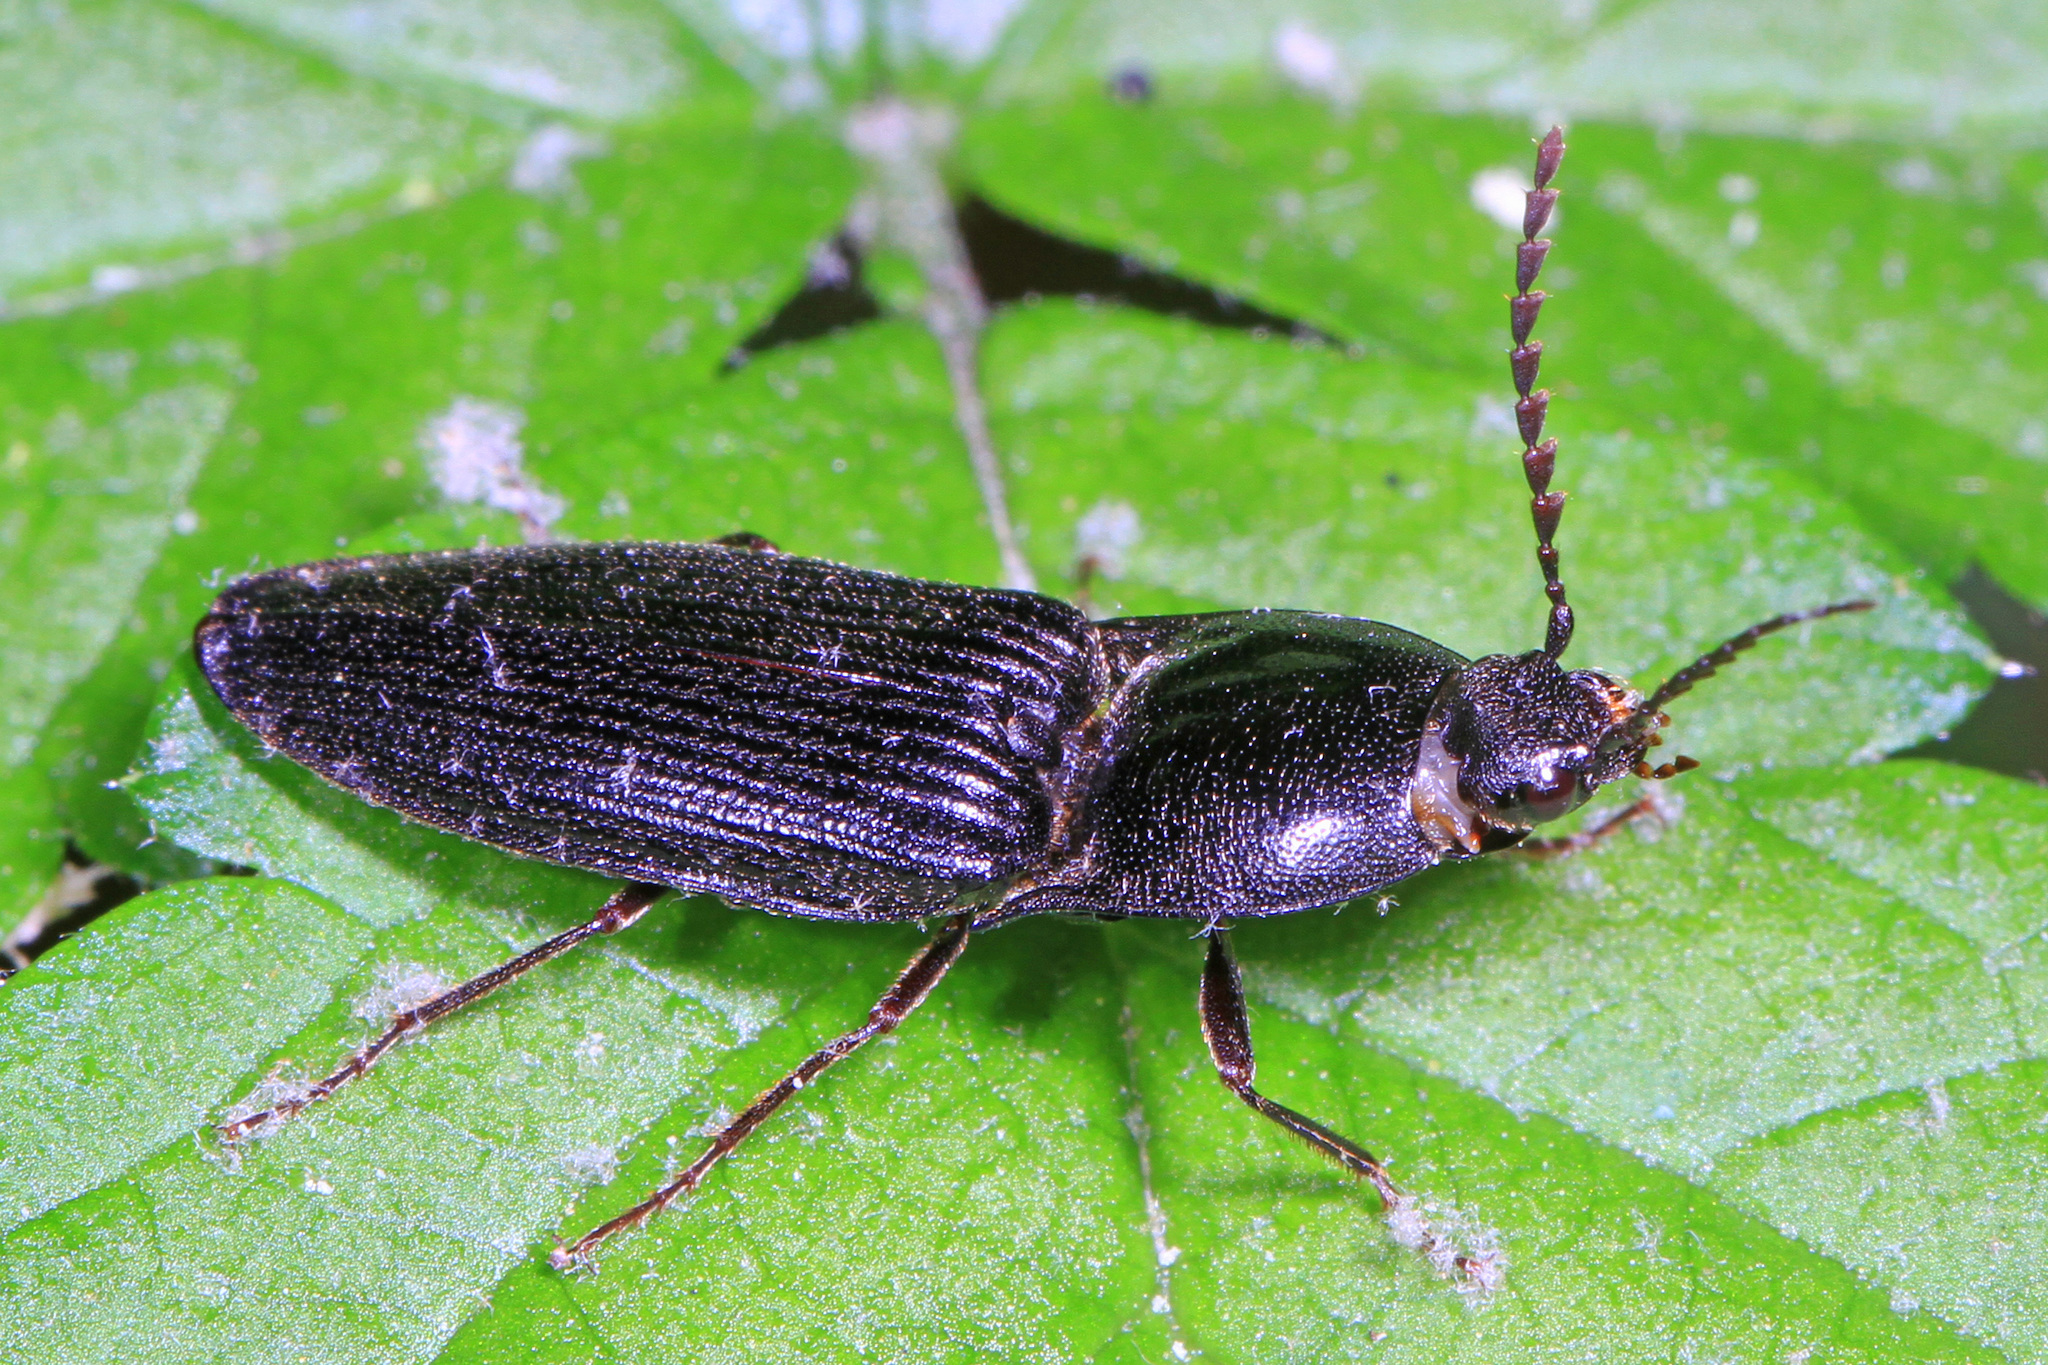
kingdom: Animalia
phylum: Arthropoda
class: Insecta
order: Coleoptera
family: Elateridae
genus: Neopristilophus
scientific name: Neopristilophus
